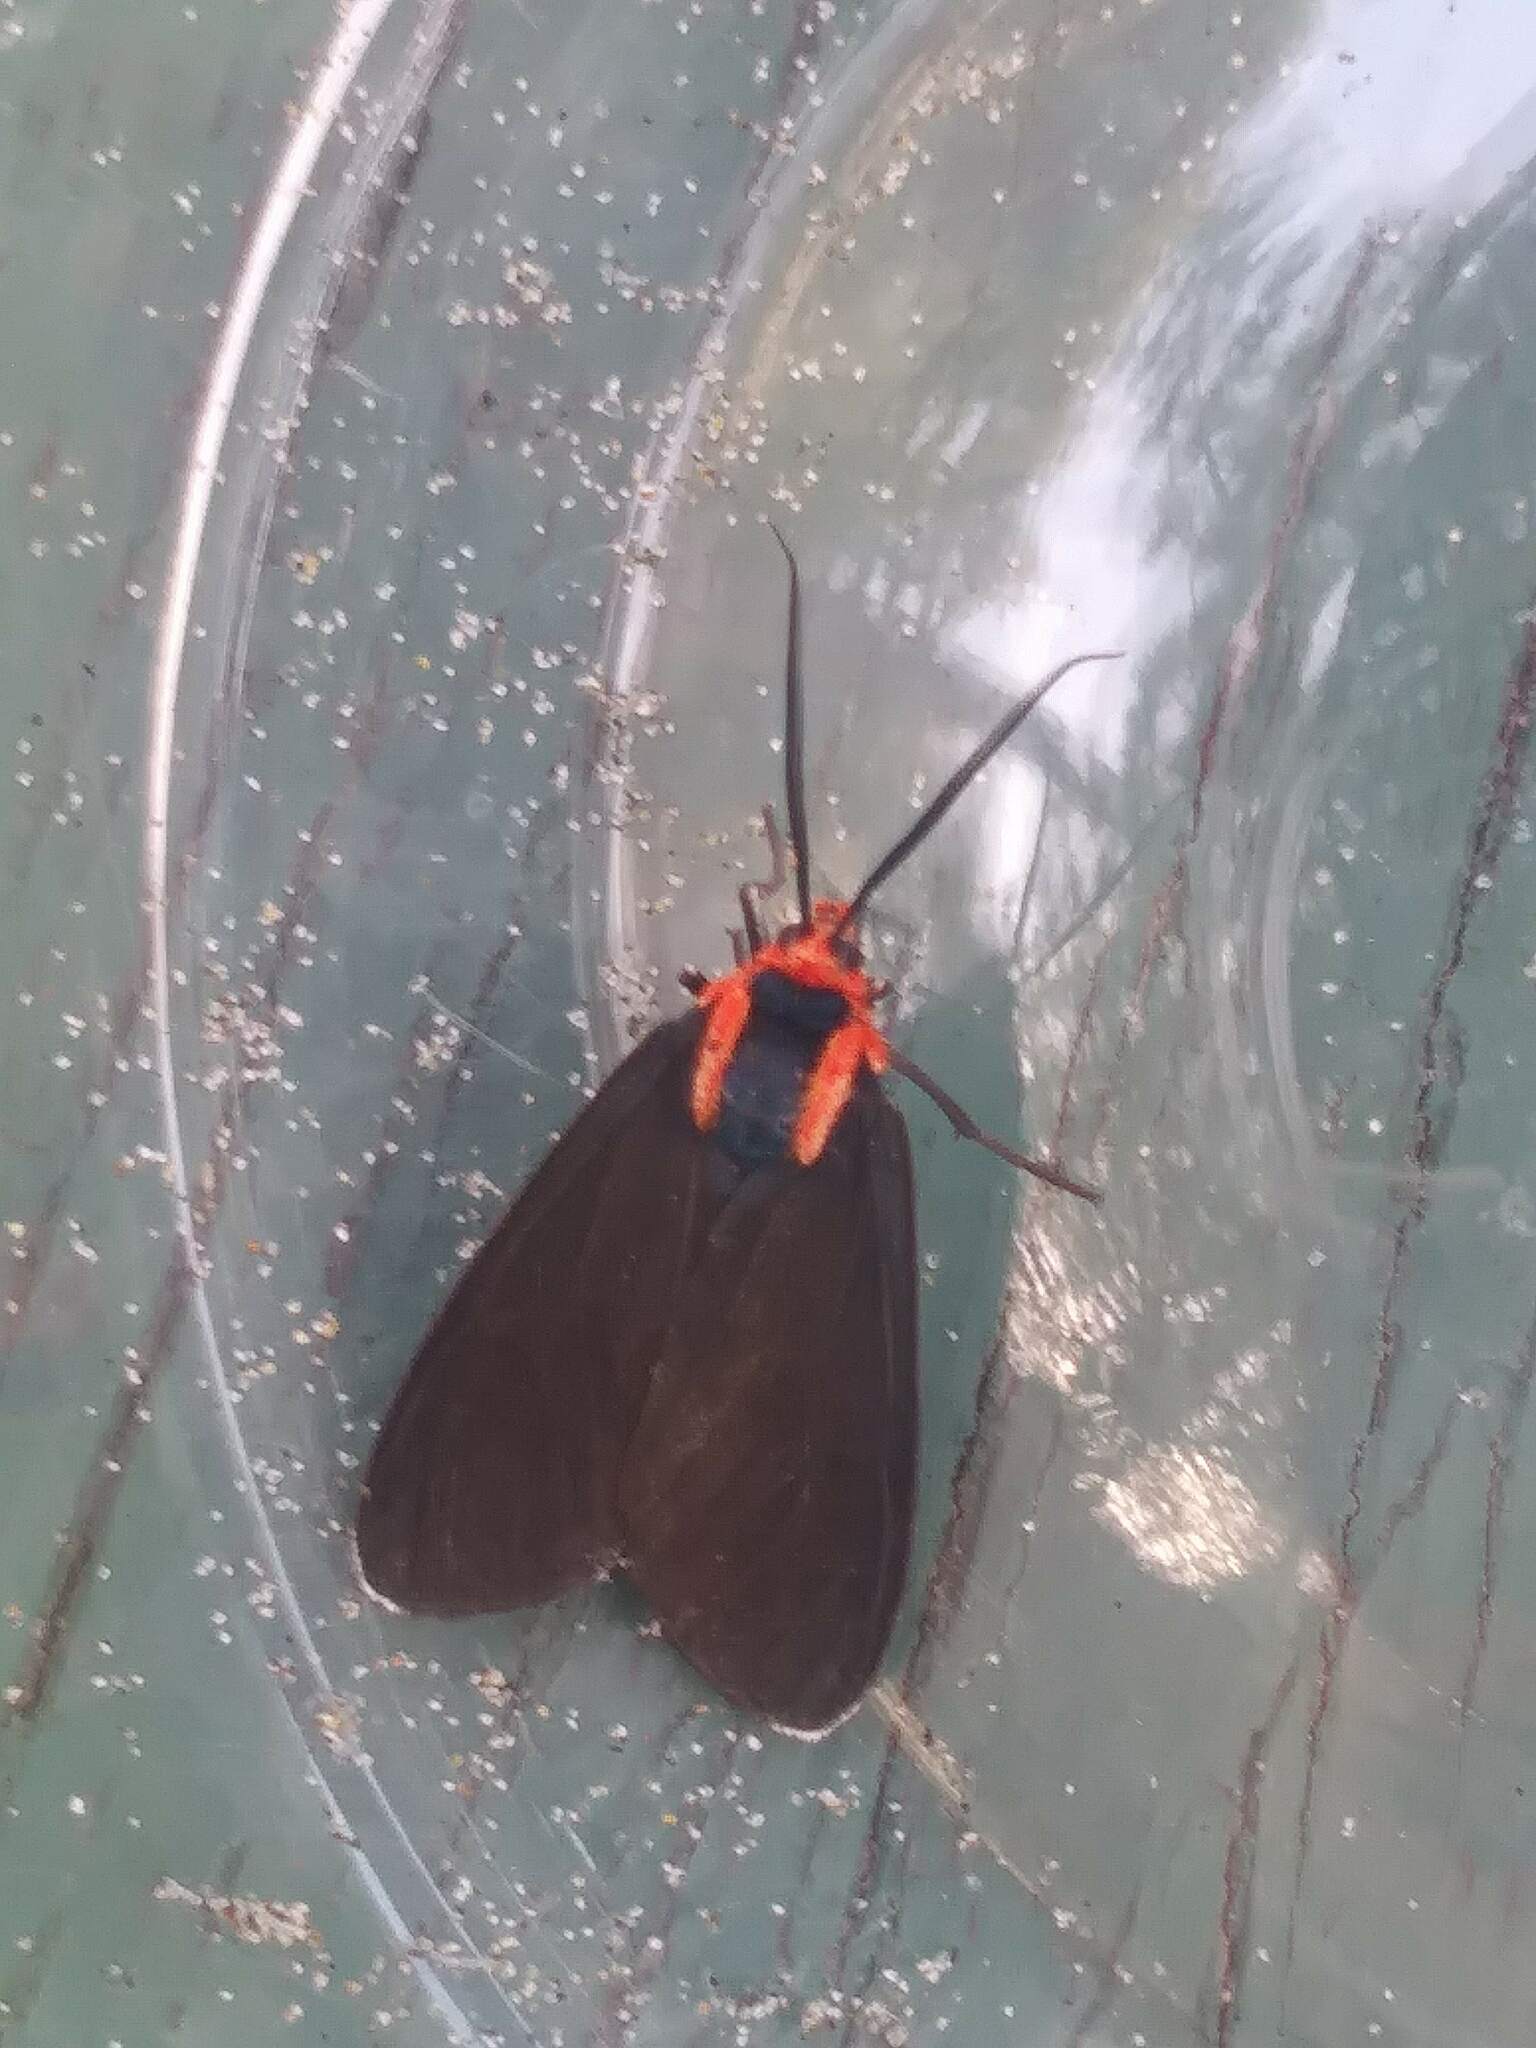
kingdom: Animalia
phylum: Arthropoda
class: Insecta
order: Lepidoptera
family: Erebidae
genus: Ctenucha
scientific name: Ctenucha rubroscapus
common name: Red-shouldered ctenucha
